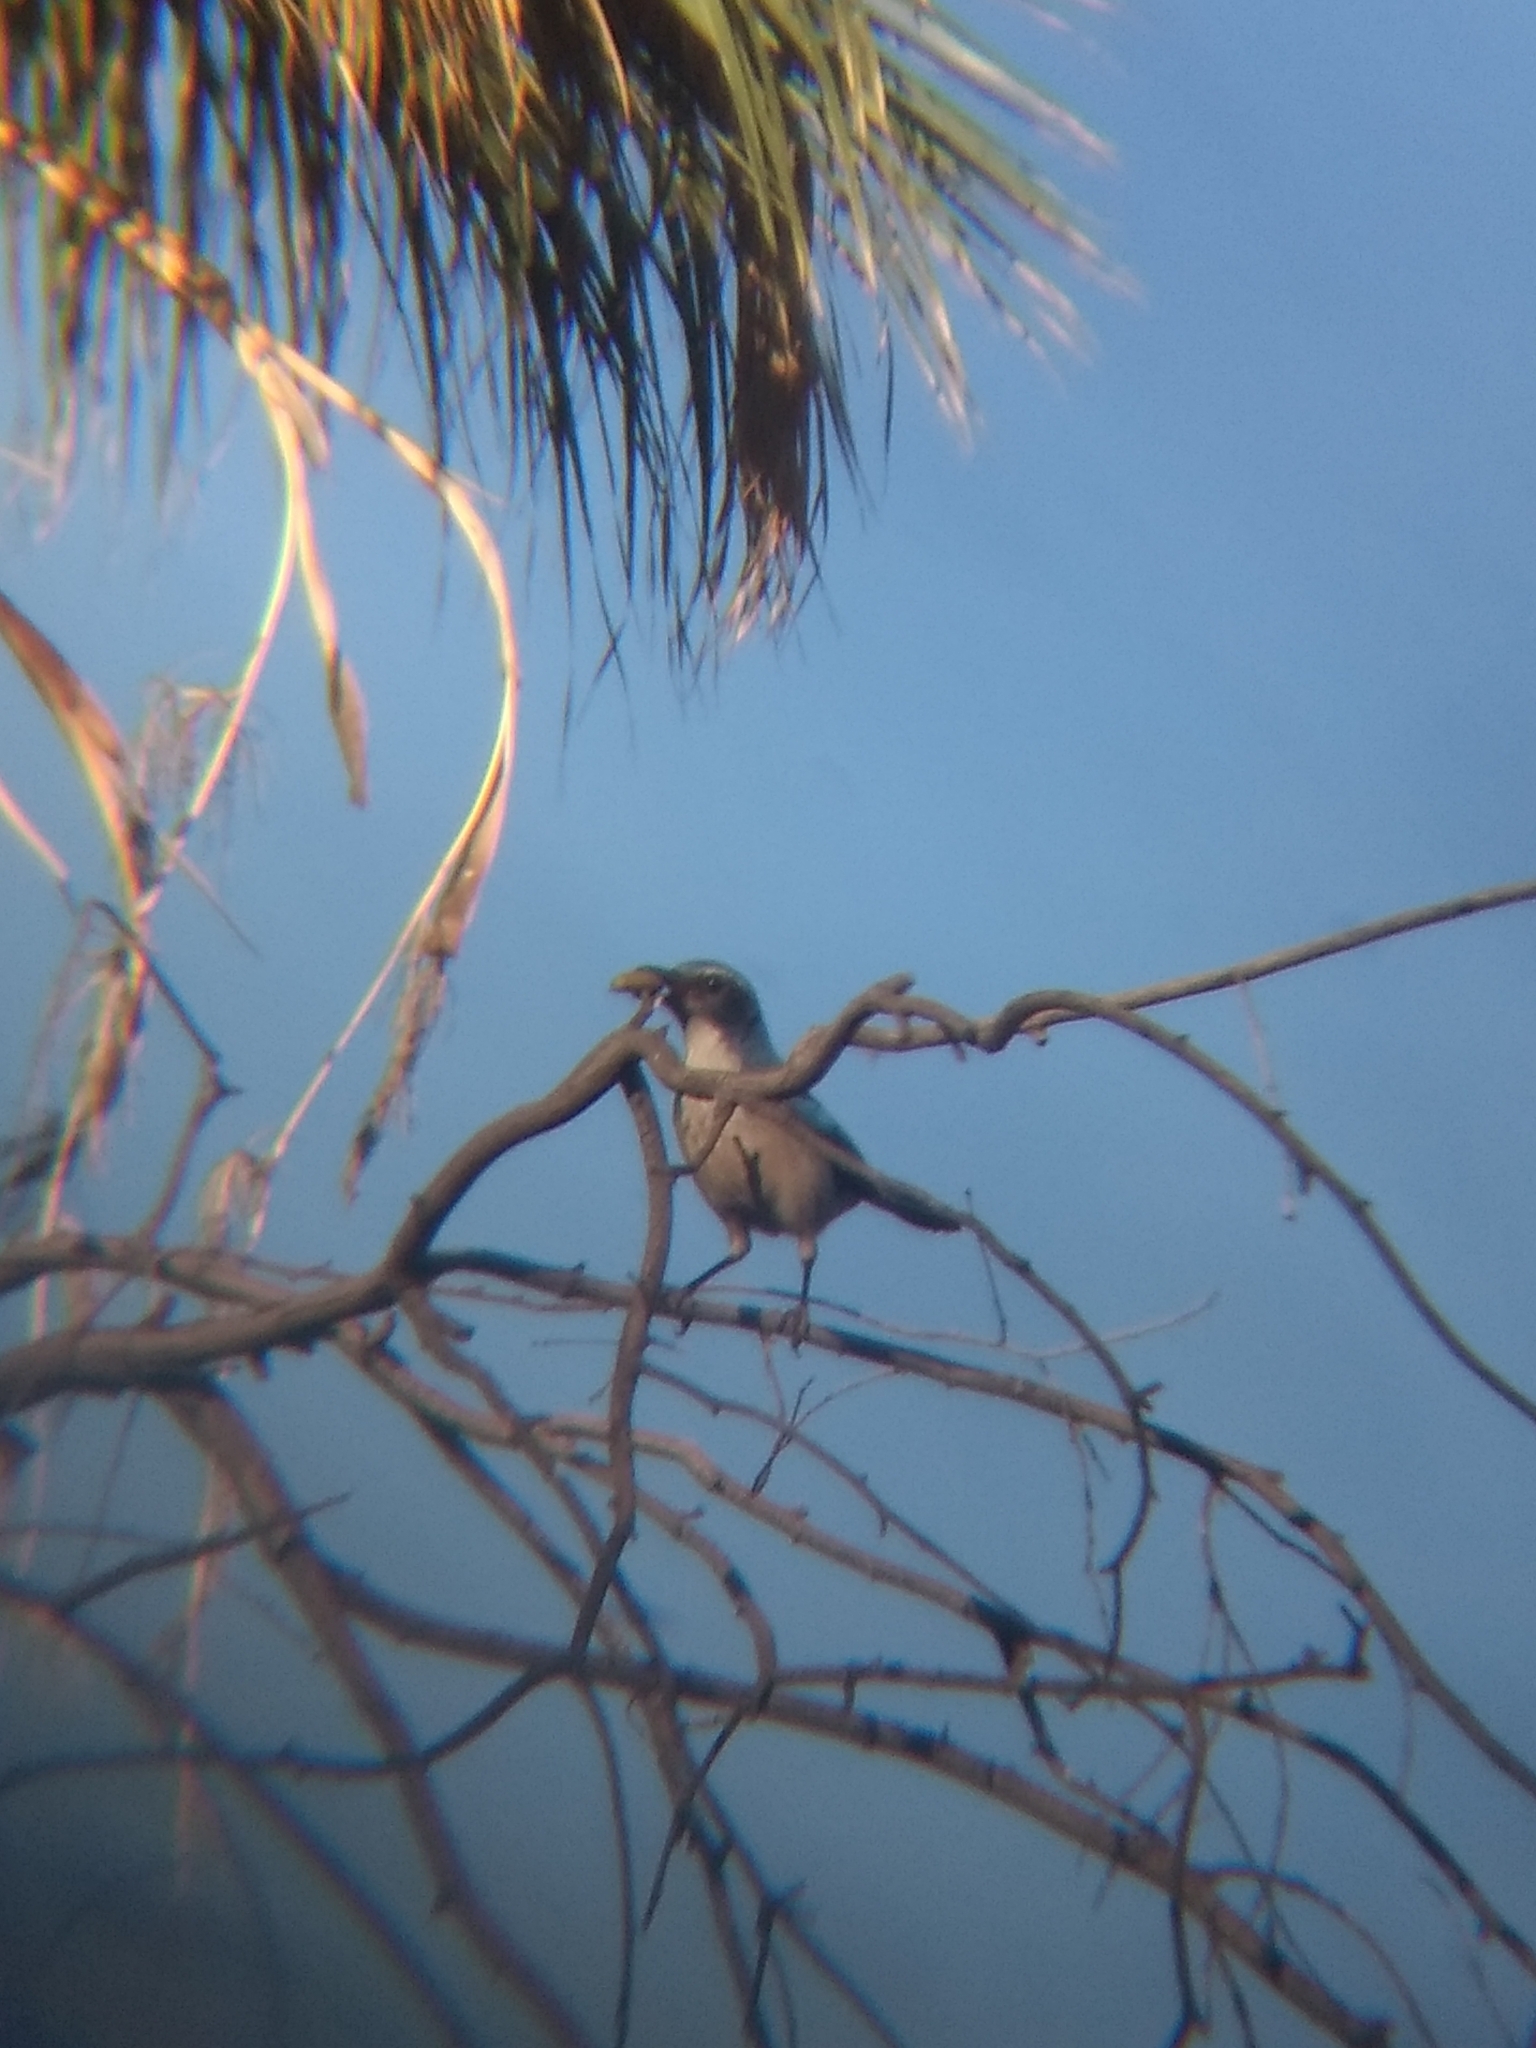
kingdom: Animalia
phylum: Chordata
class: Aves
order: Passeriformes
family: Corvidae
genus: Aphelocoma
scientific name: Aphelocoma californica
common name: California scrub-jay
